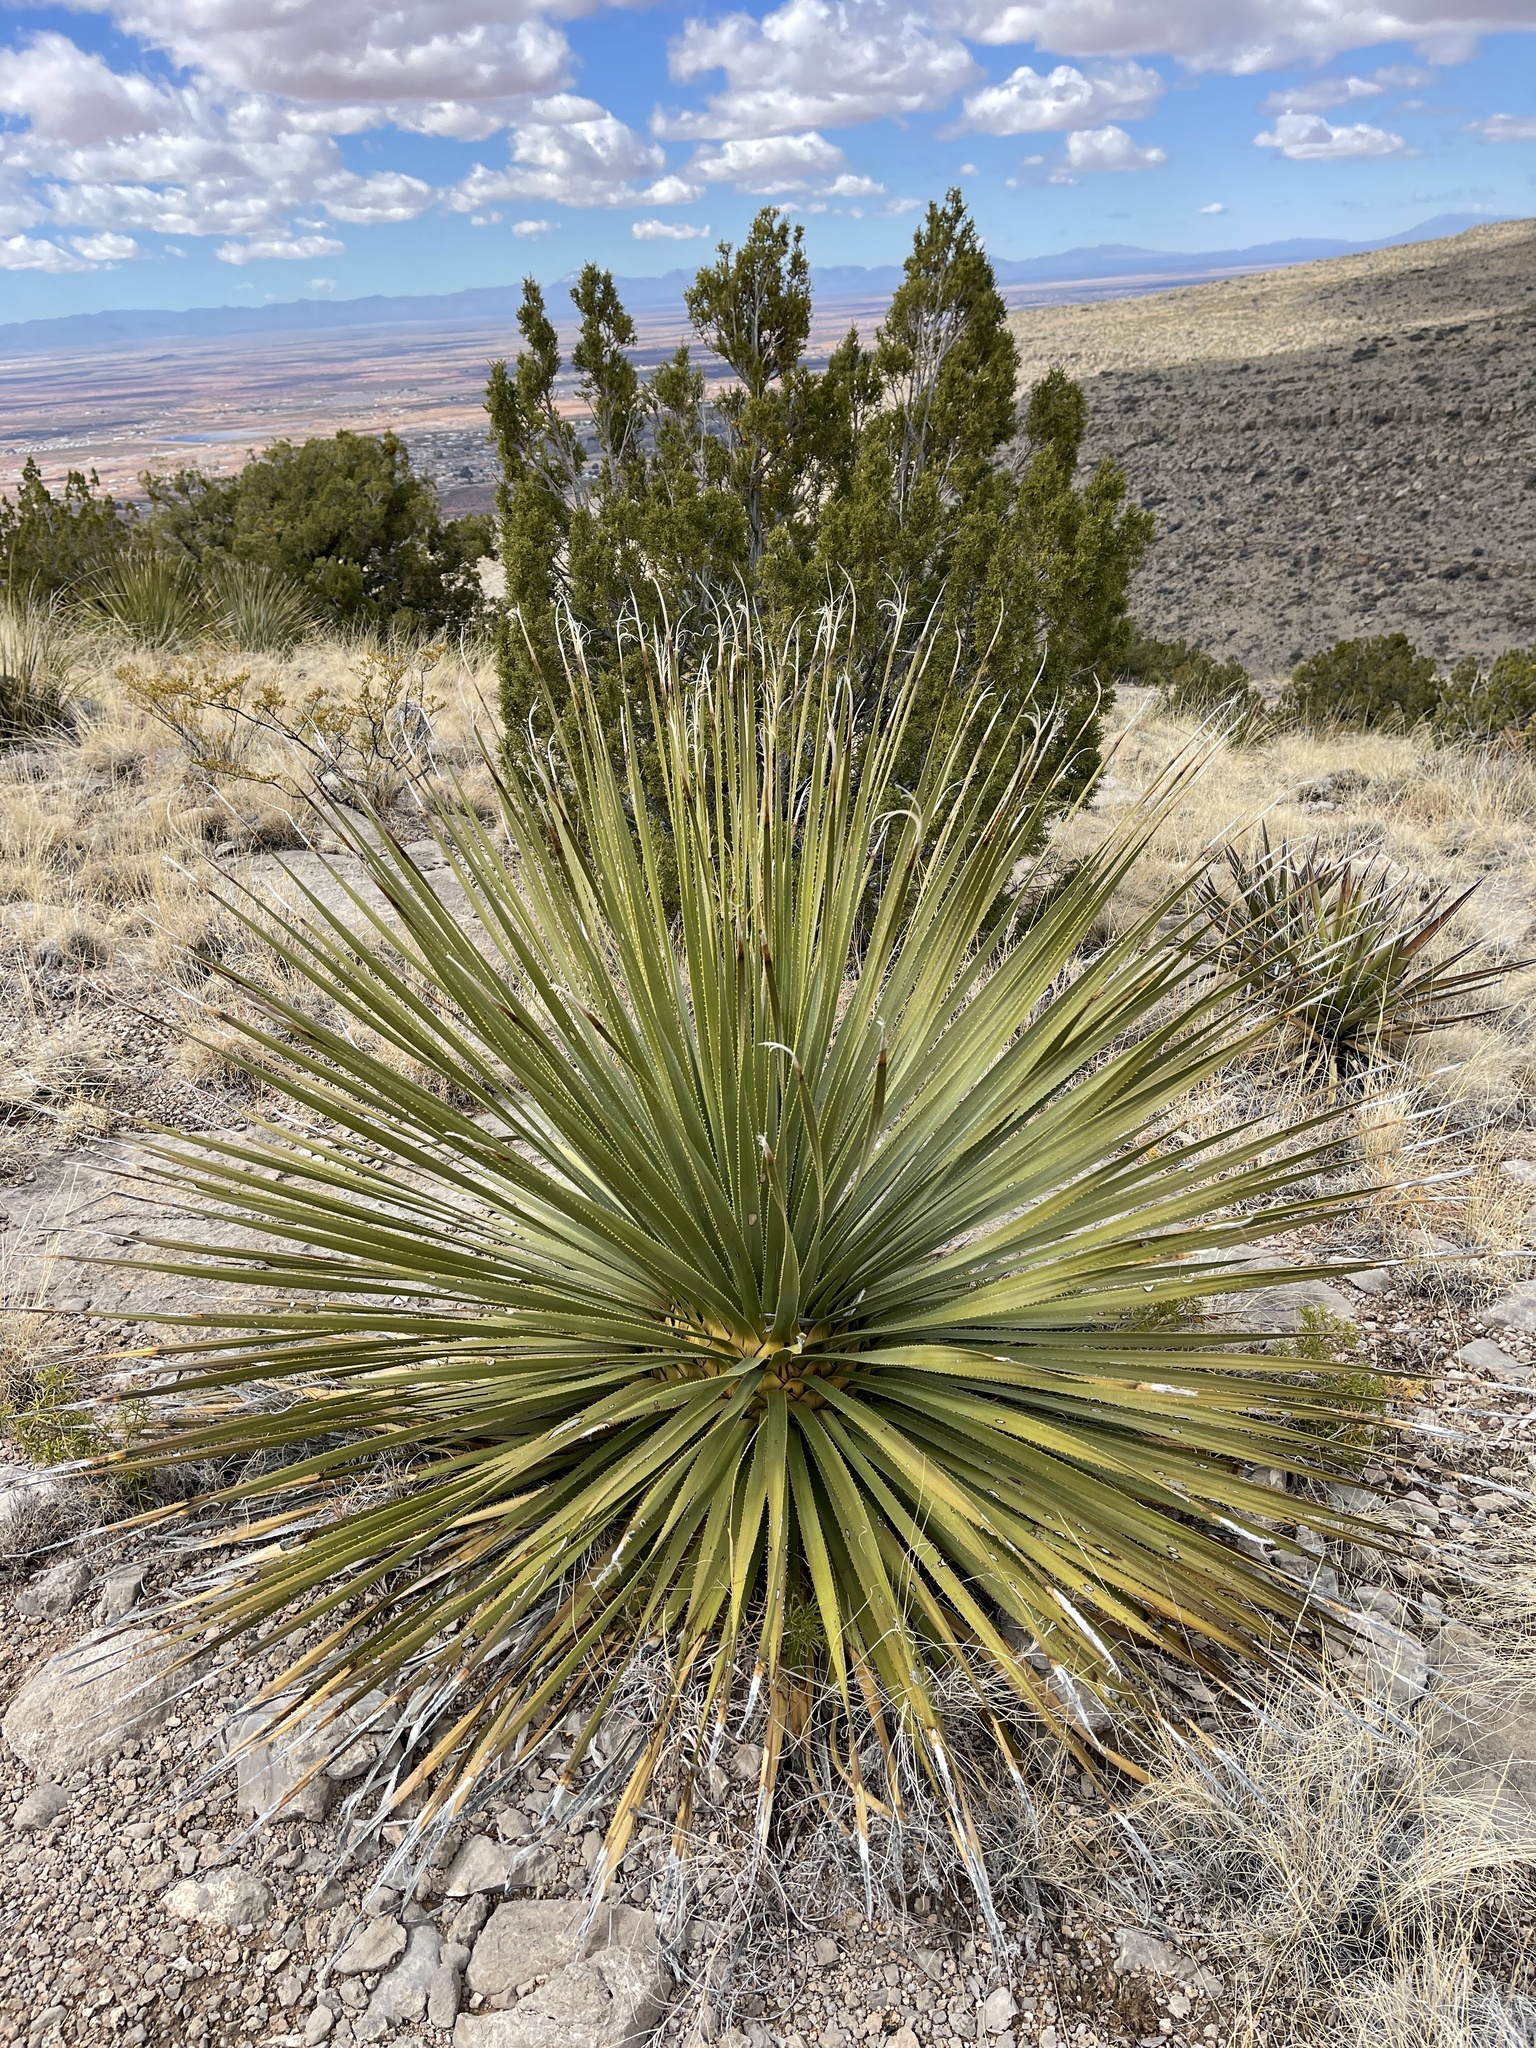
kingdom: Plantae
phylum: Tracheophyta
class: Liliopsida
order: Asparagales
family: Asparagaceae
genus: Dasylirion
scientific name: Dasylirion wheeleri
